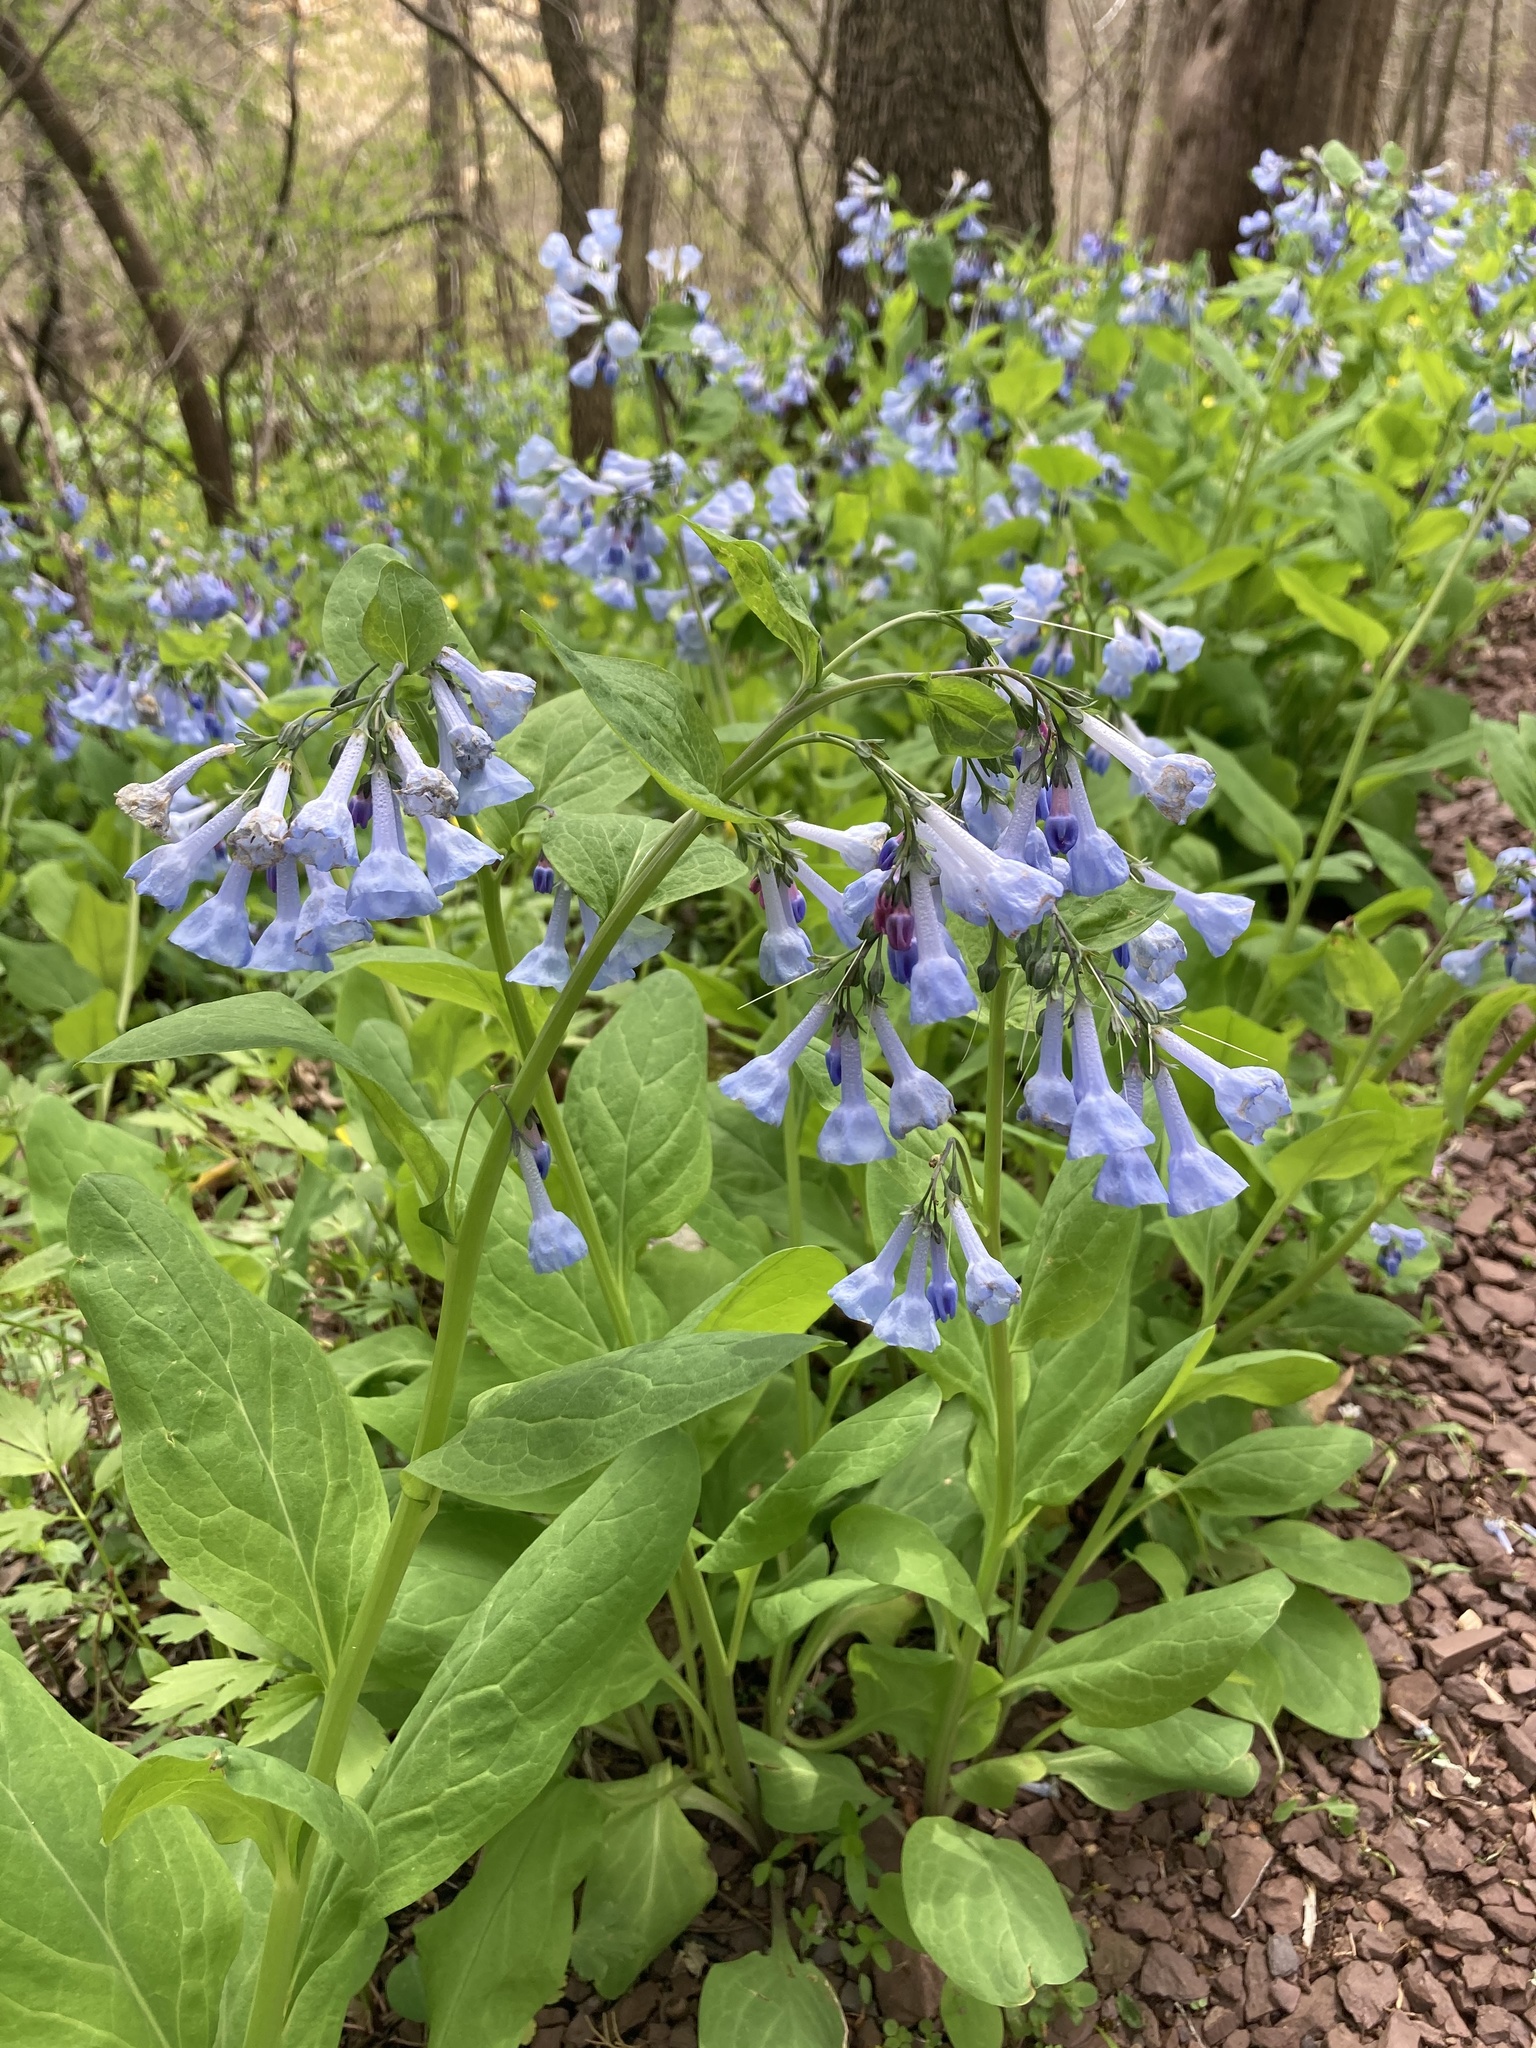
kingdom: Plantae
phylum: Tracheophyta
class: Magnoliopsida
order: Boraginales
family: Boraginaceae
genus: Mertensia
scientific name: Mertensia virginica
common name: Virginia bluebells
